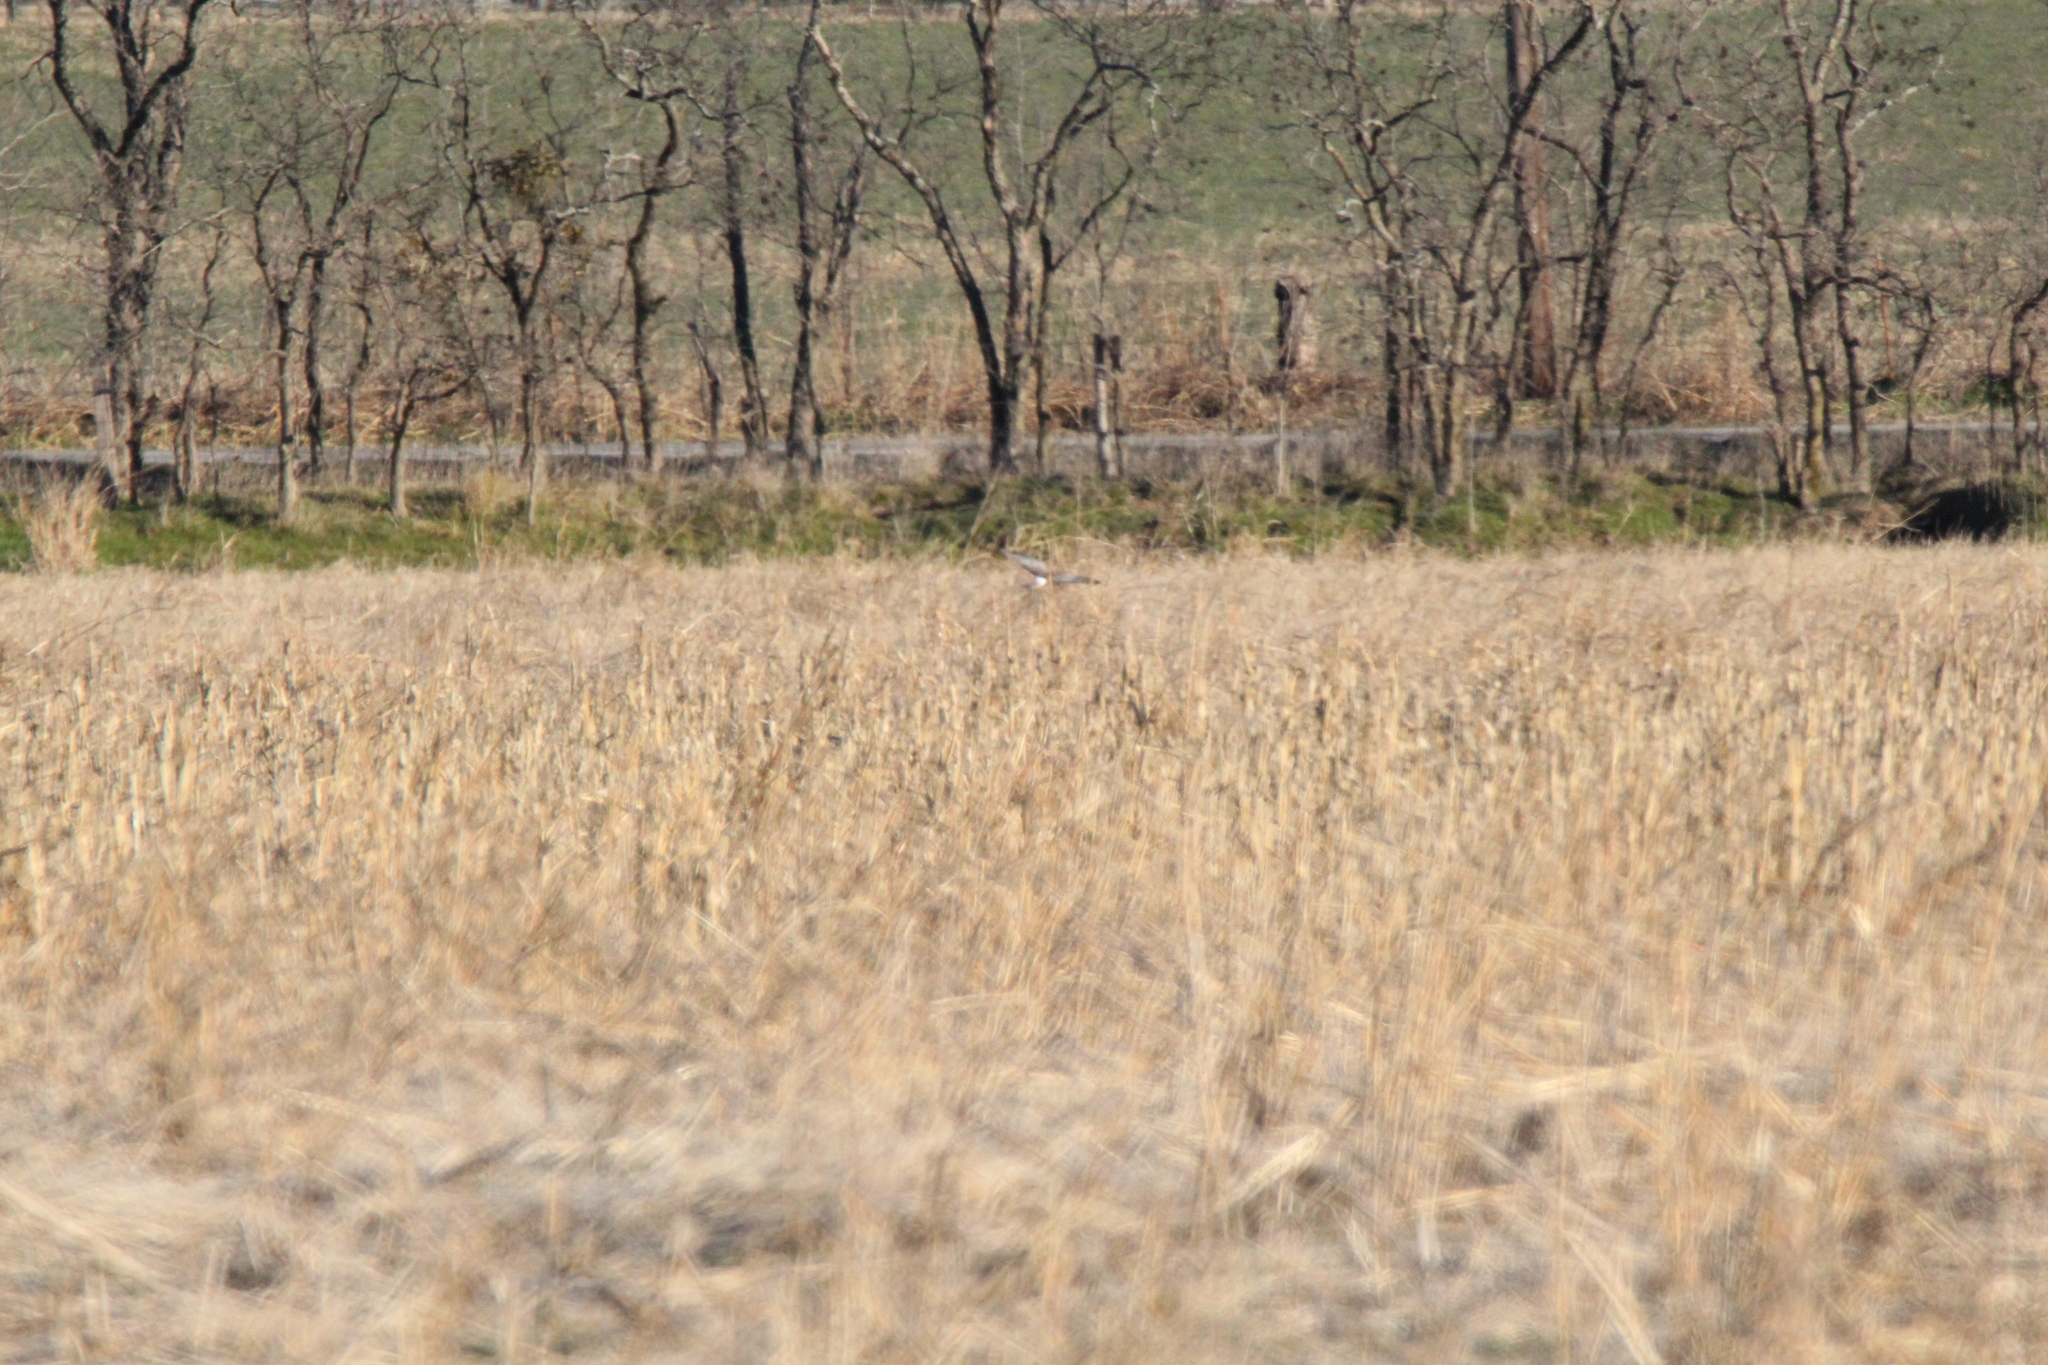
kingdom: Animalia
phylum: Chordata
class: Aves
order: Accipitriformes
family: Accipitridae
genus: Circus
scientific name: Circus cyaneus
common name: Hen harrier
